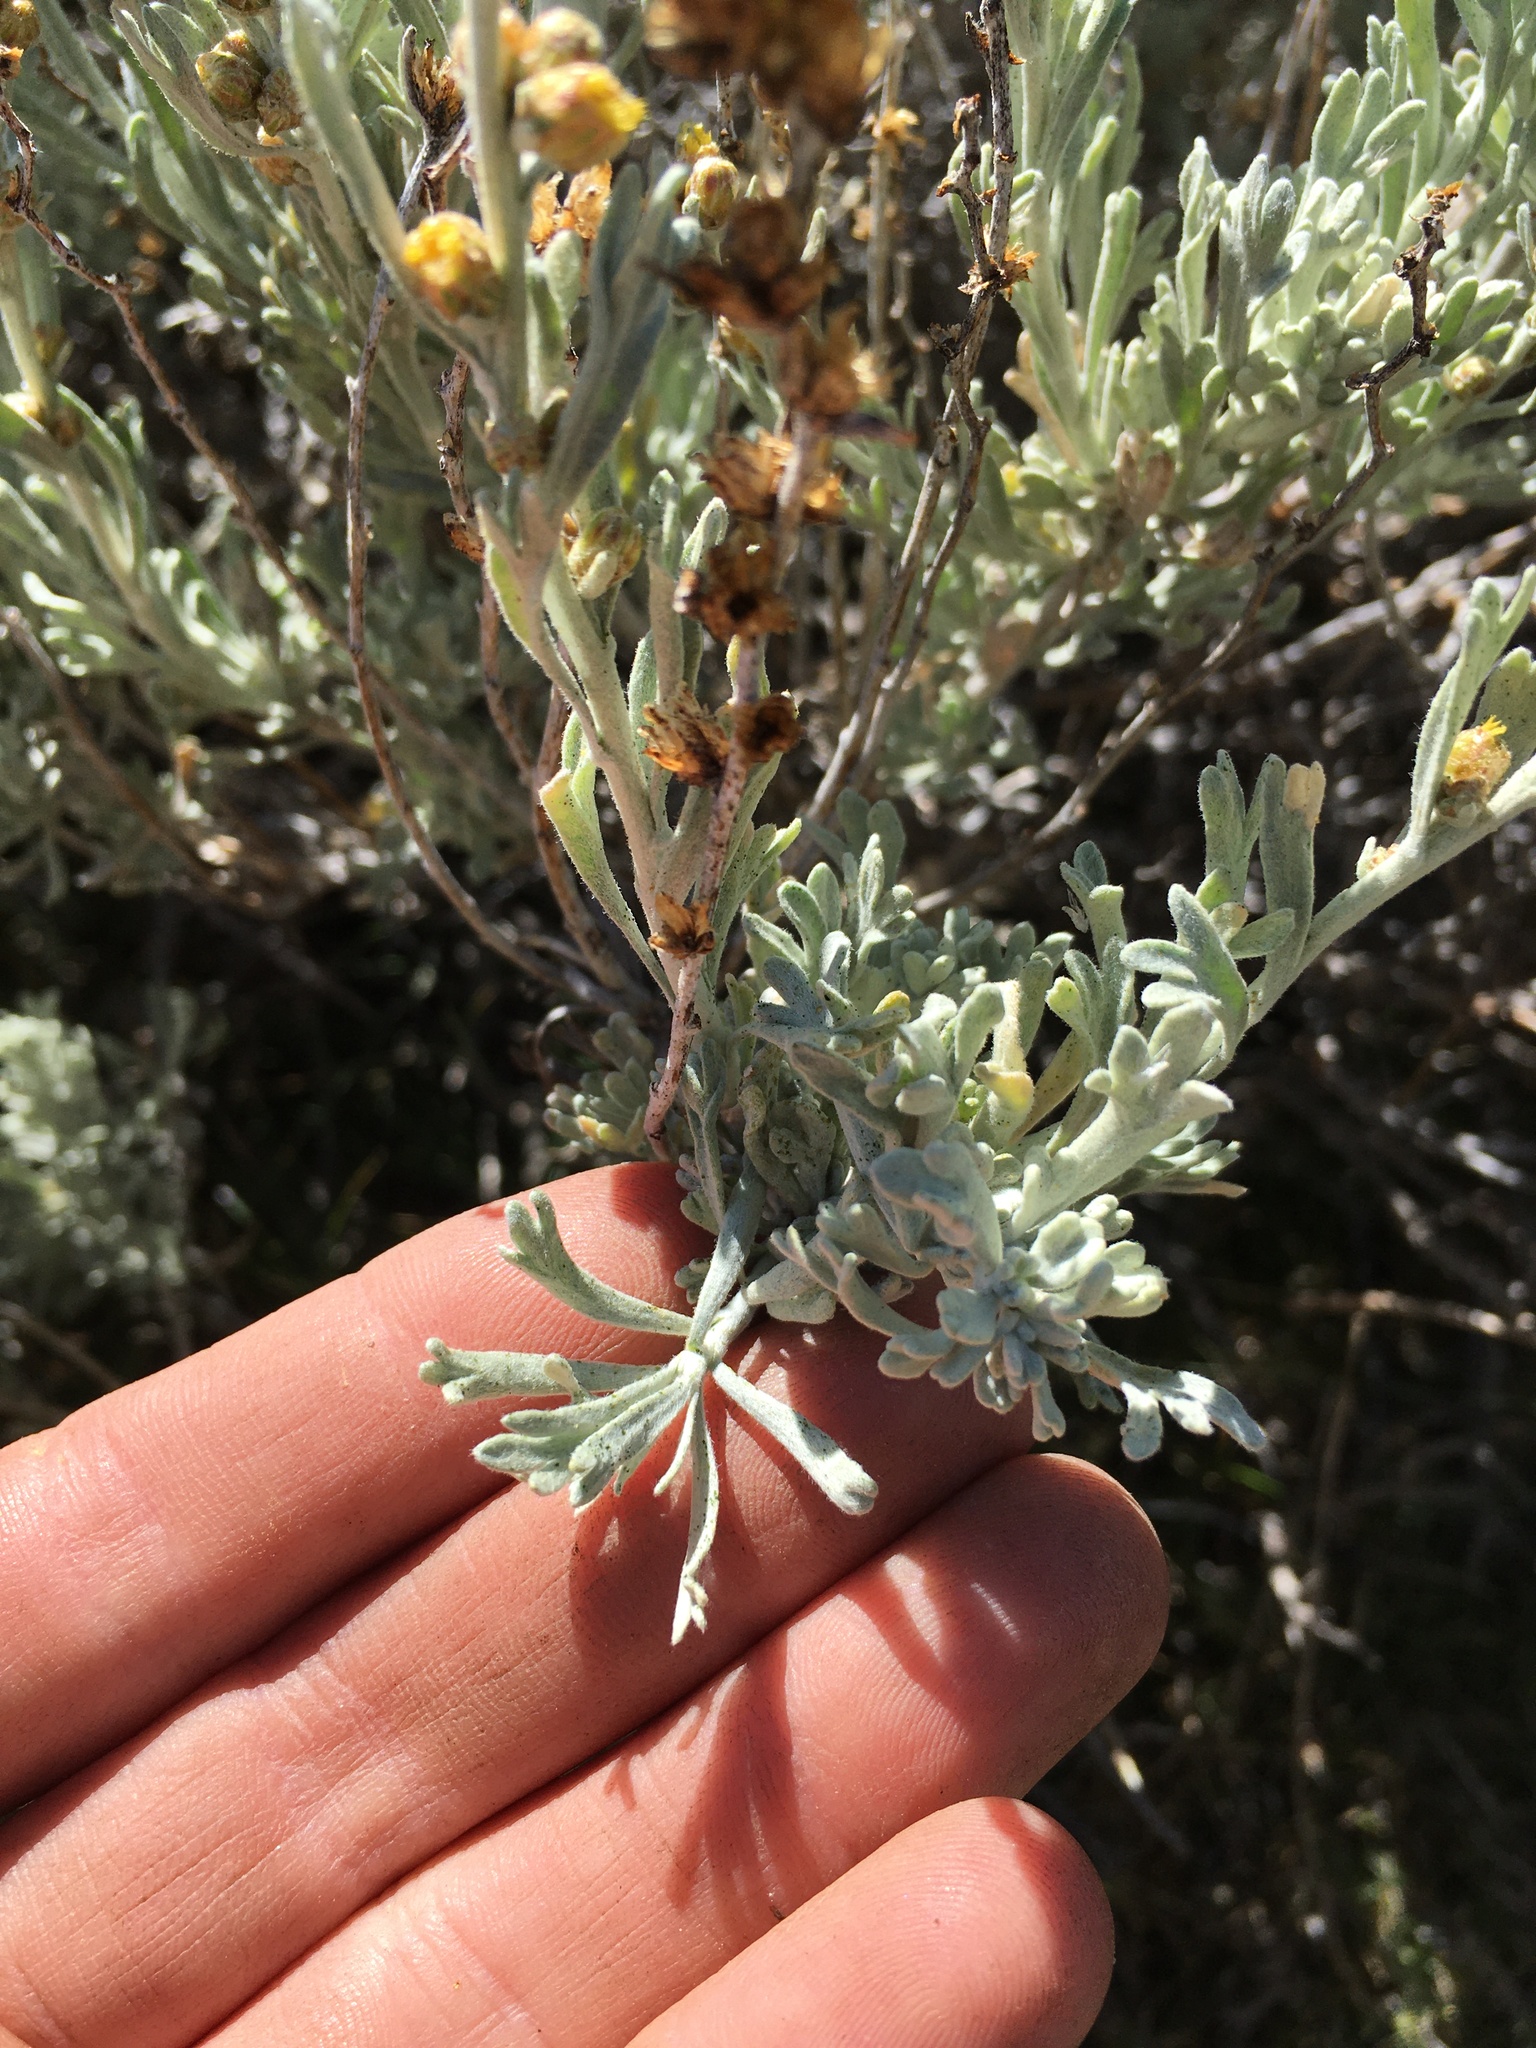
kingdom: Plantae
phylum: Tracheophyta
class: Magnoliopsida
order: Asterales
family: Asteraceae
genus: Artemisia
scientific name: Artemisia rothrockii
